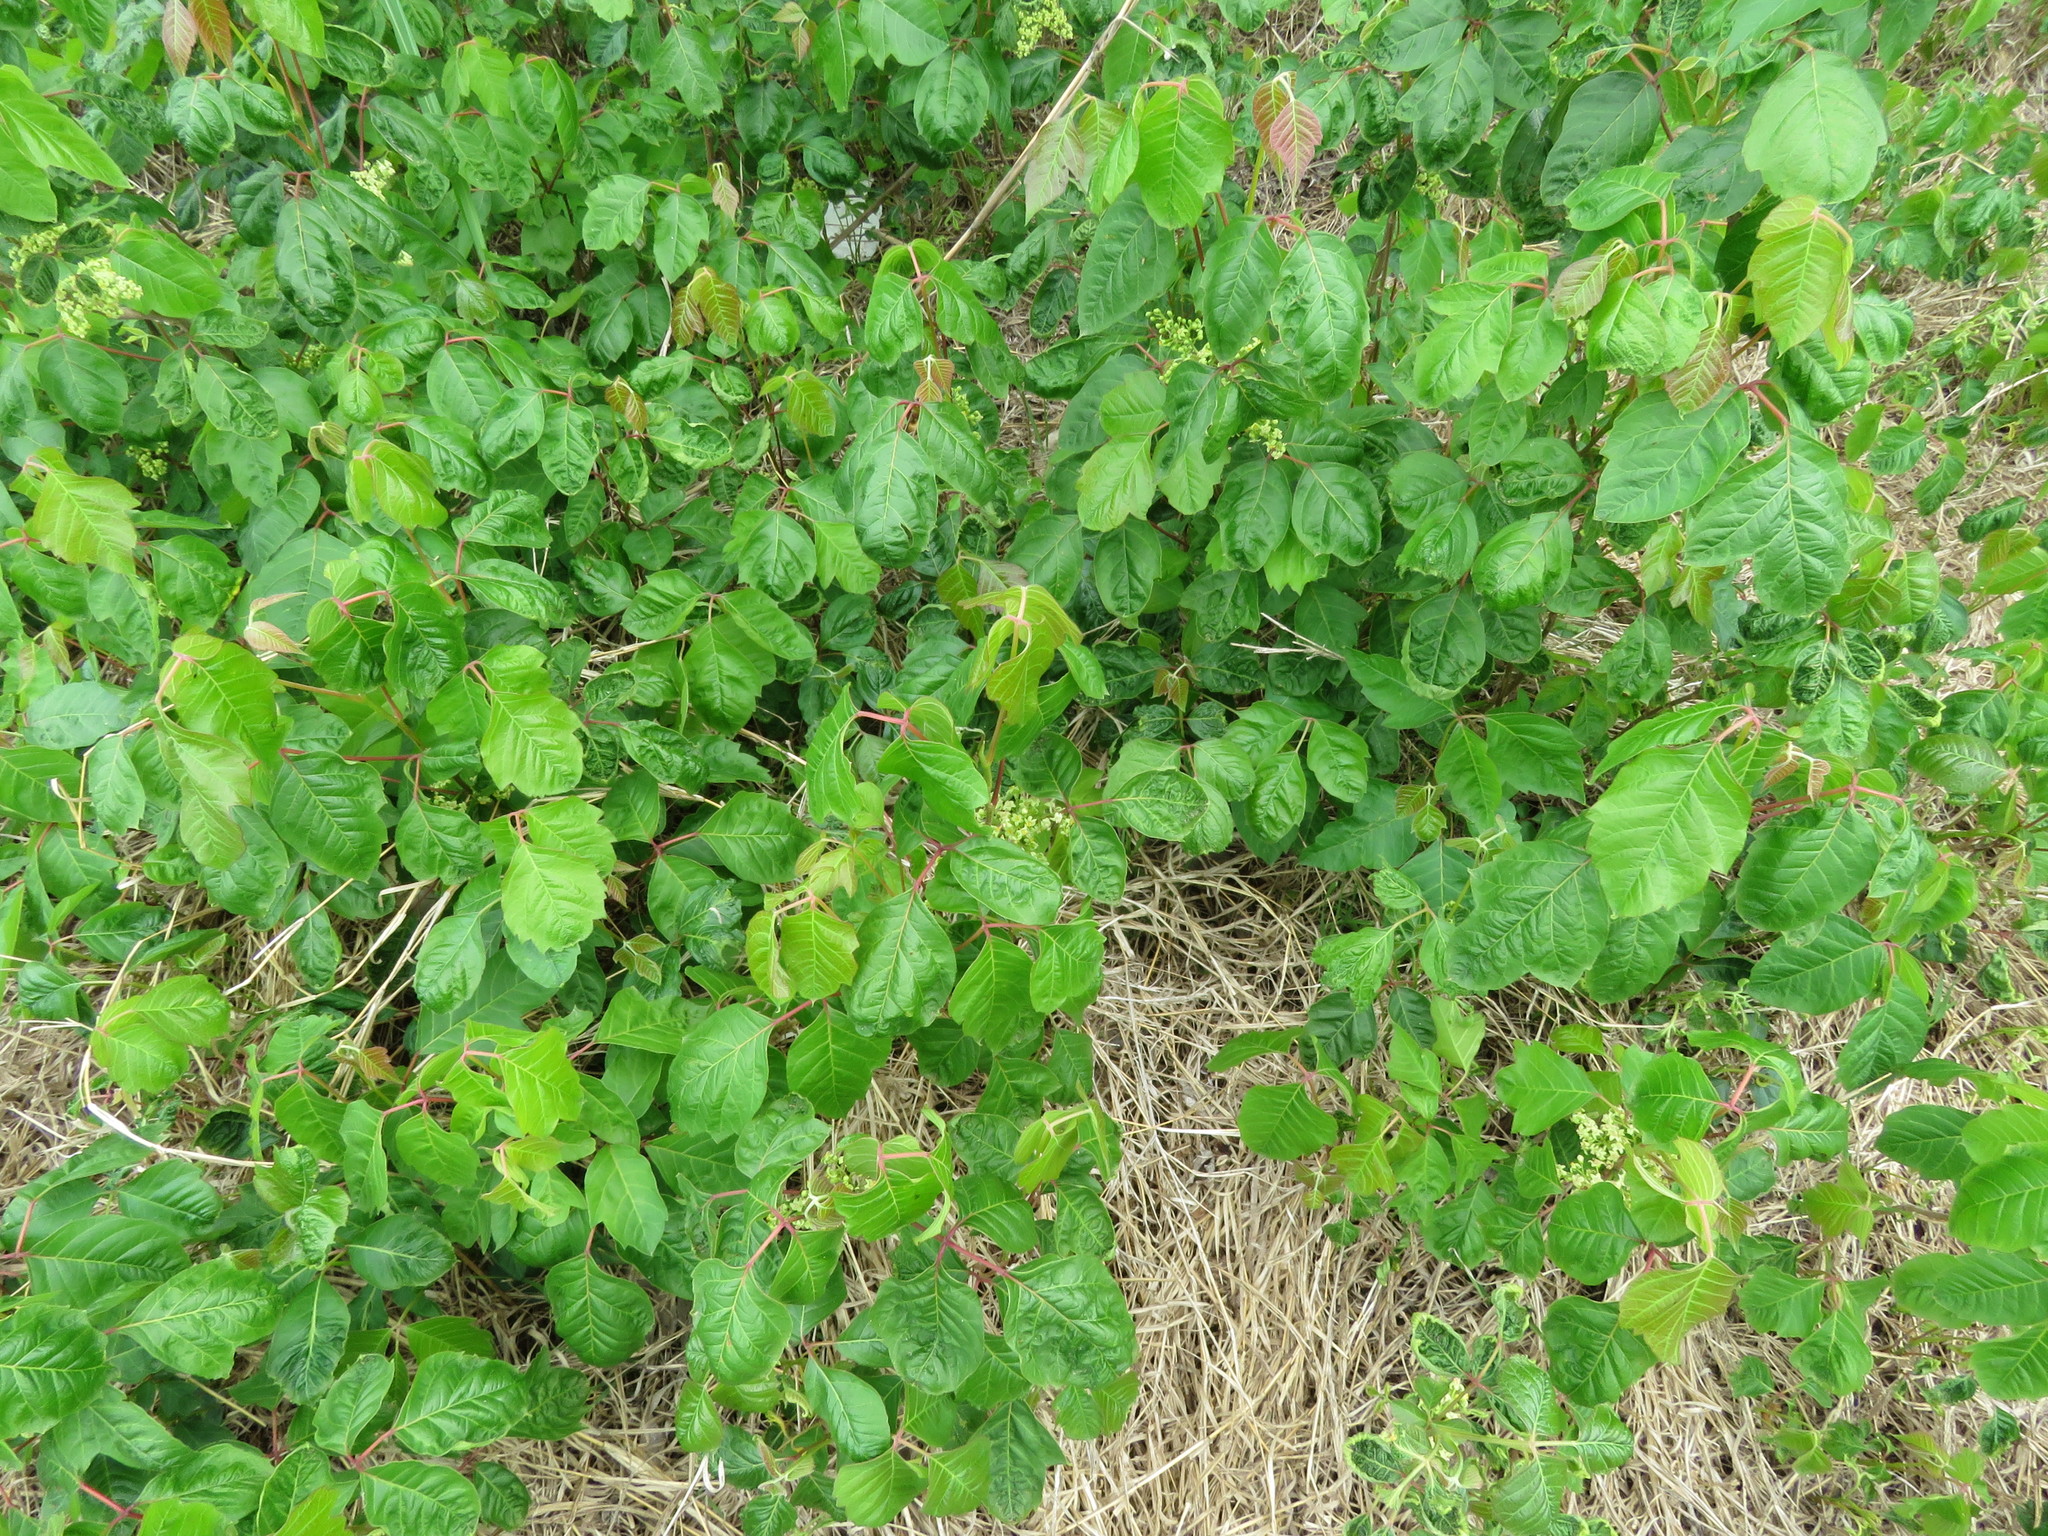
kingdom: Plantae
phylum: Tracheophyta
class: Magnoliopsida
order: Sapindales
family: Anacardiaceae
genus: Toxicodendron
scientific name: Toxicodendron radicans
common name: Poison ivy
